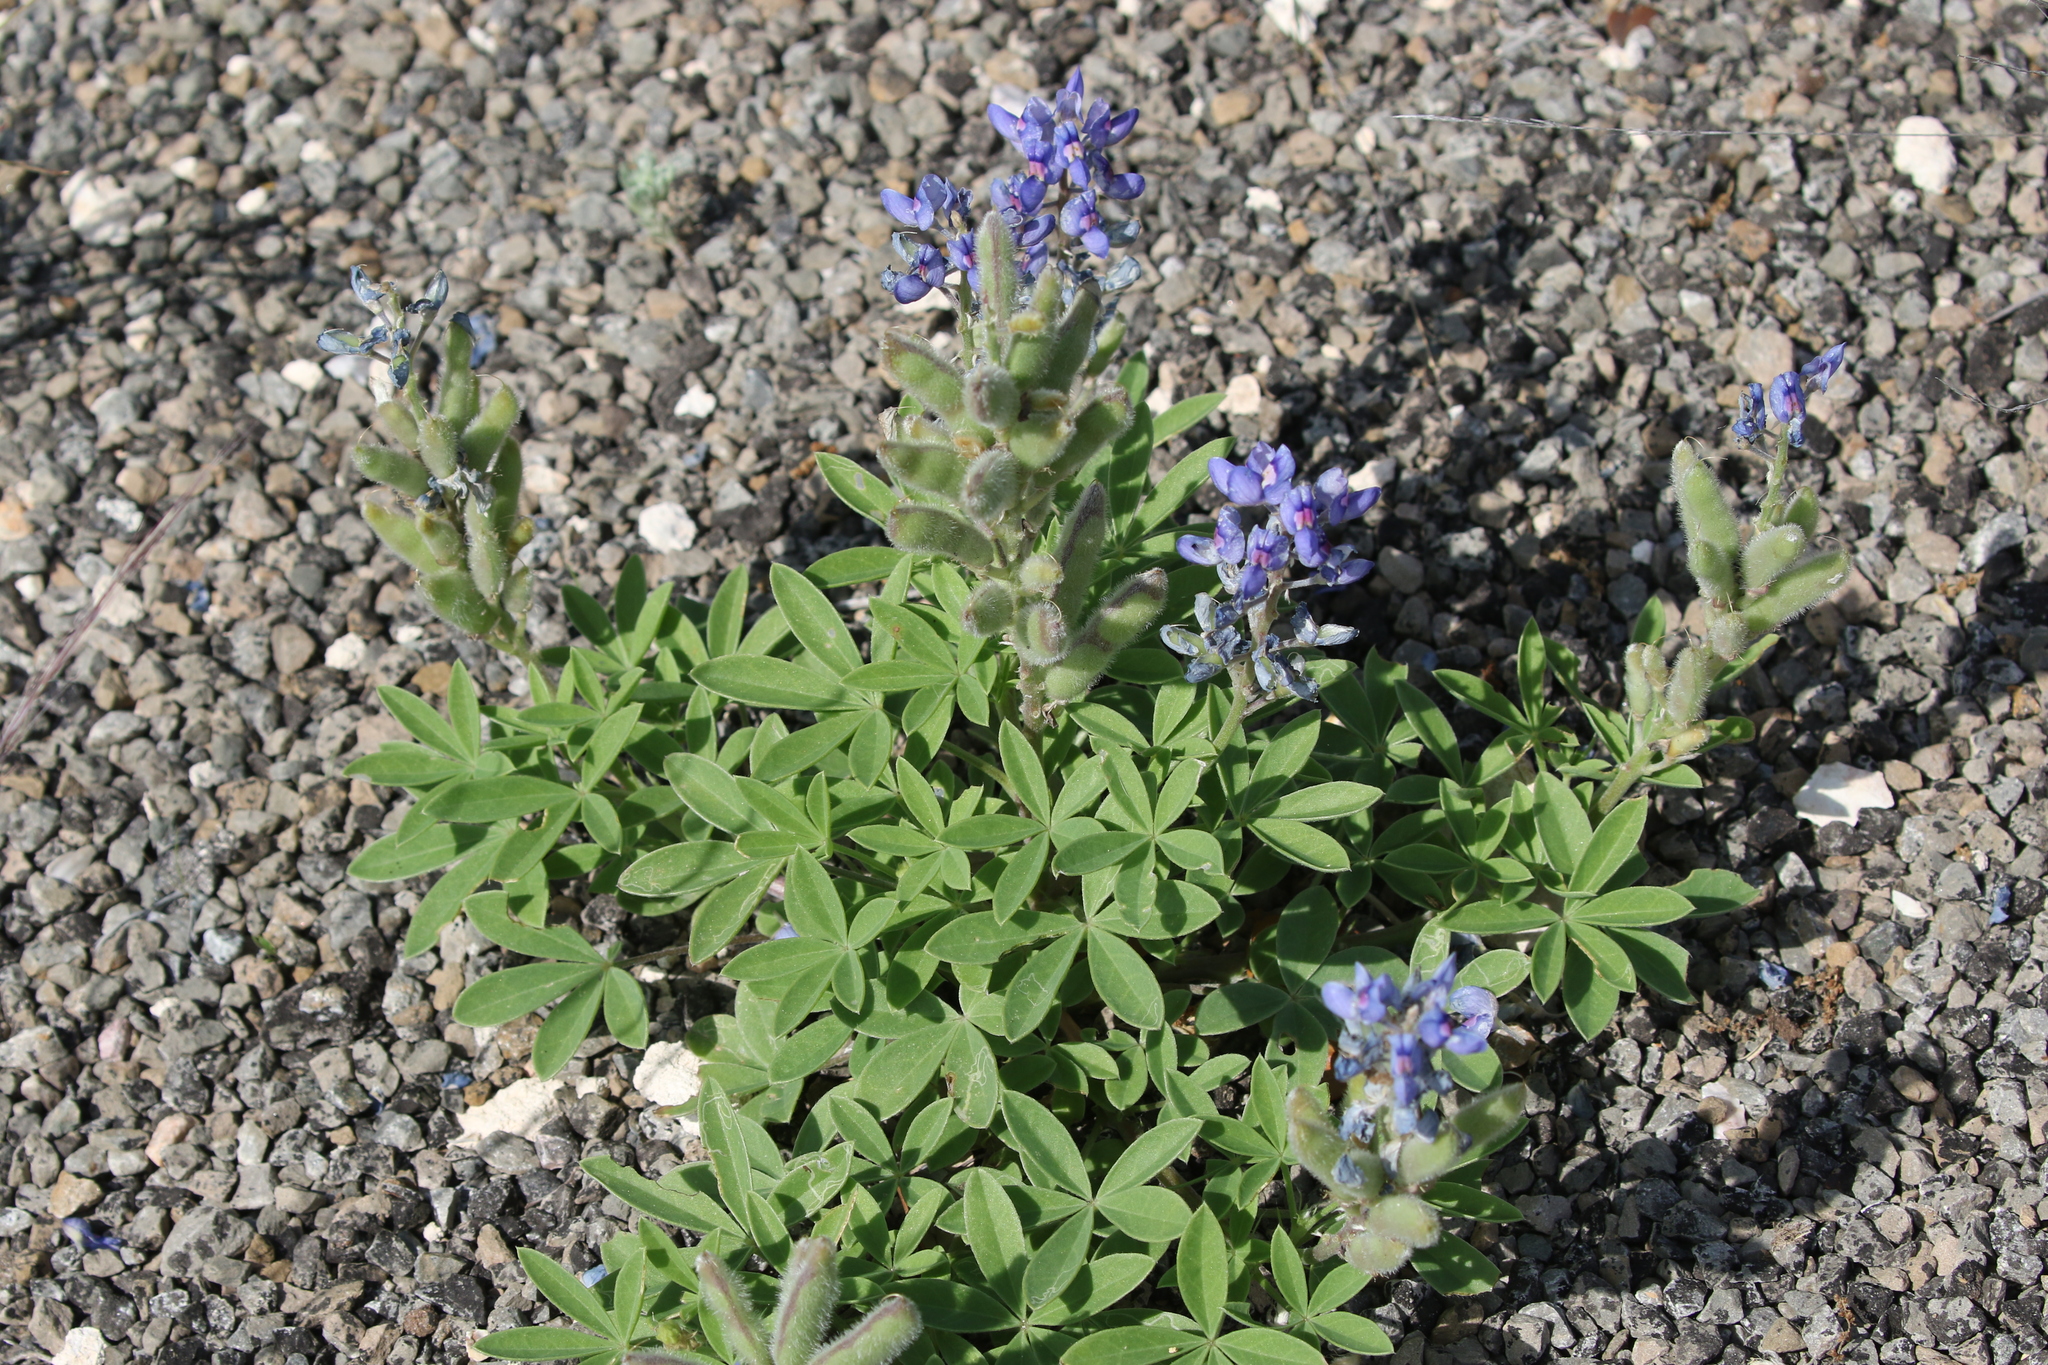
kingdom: Plantae
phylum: Tracheophyta
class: Magnoliopsida
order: Fabales
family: Fabaceae
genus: Lupinus
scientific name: Lupinus texensis
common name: Texas bluebonnet
